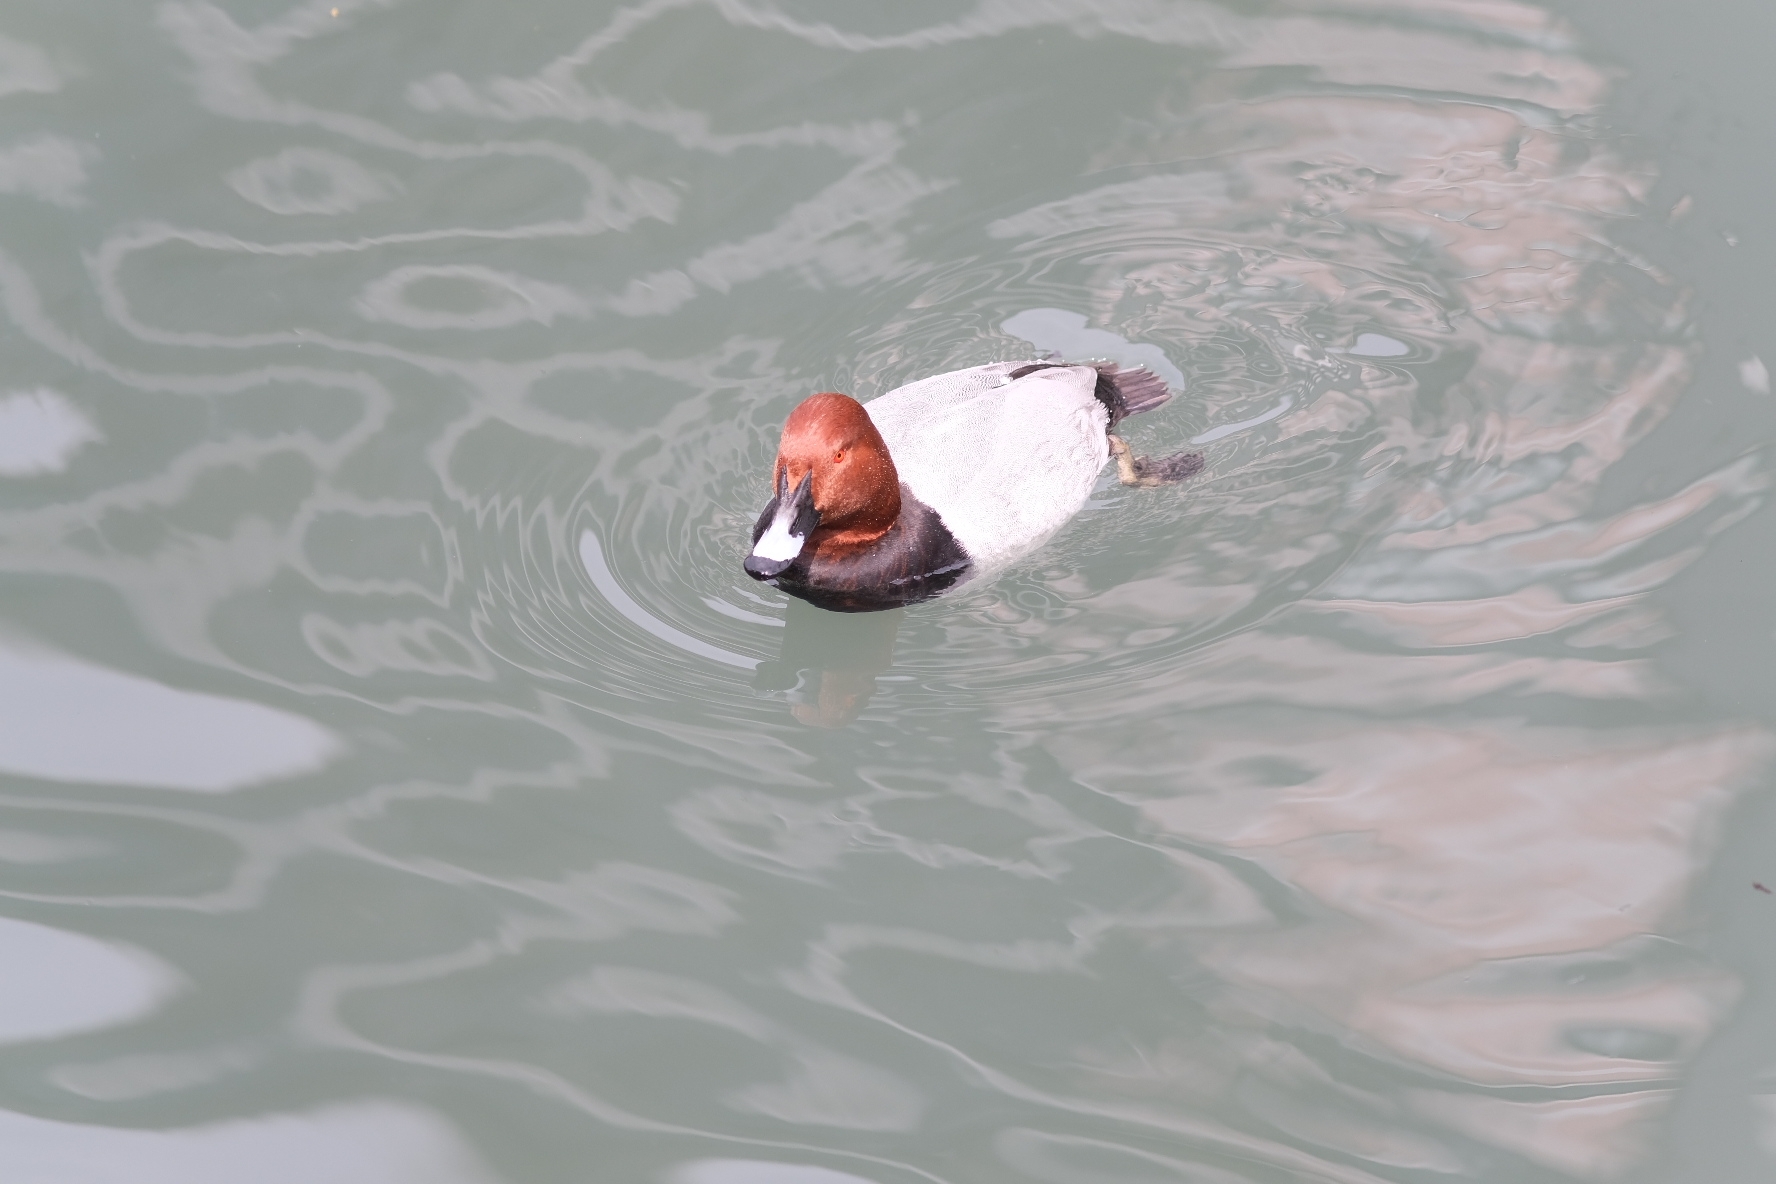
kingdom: Animalia
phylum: Chordata
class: Aves
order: Anseriformes
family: Anatidae
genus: Aythya
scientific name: Aythya ferina
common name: Common pochard
